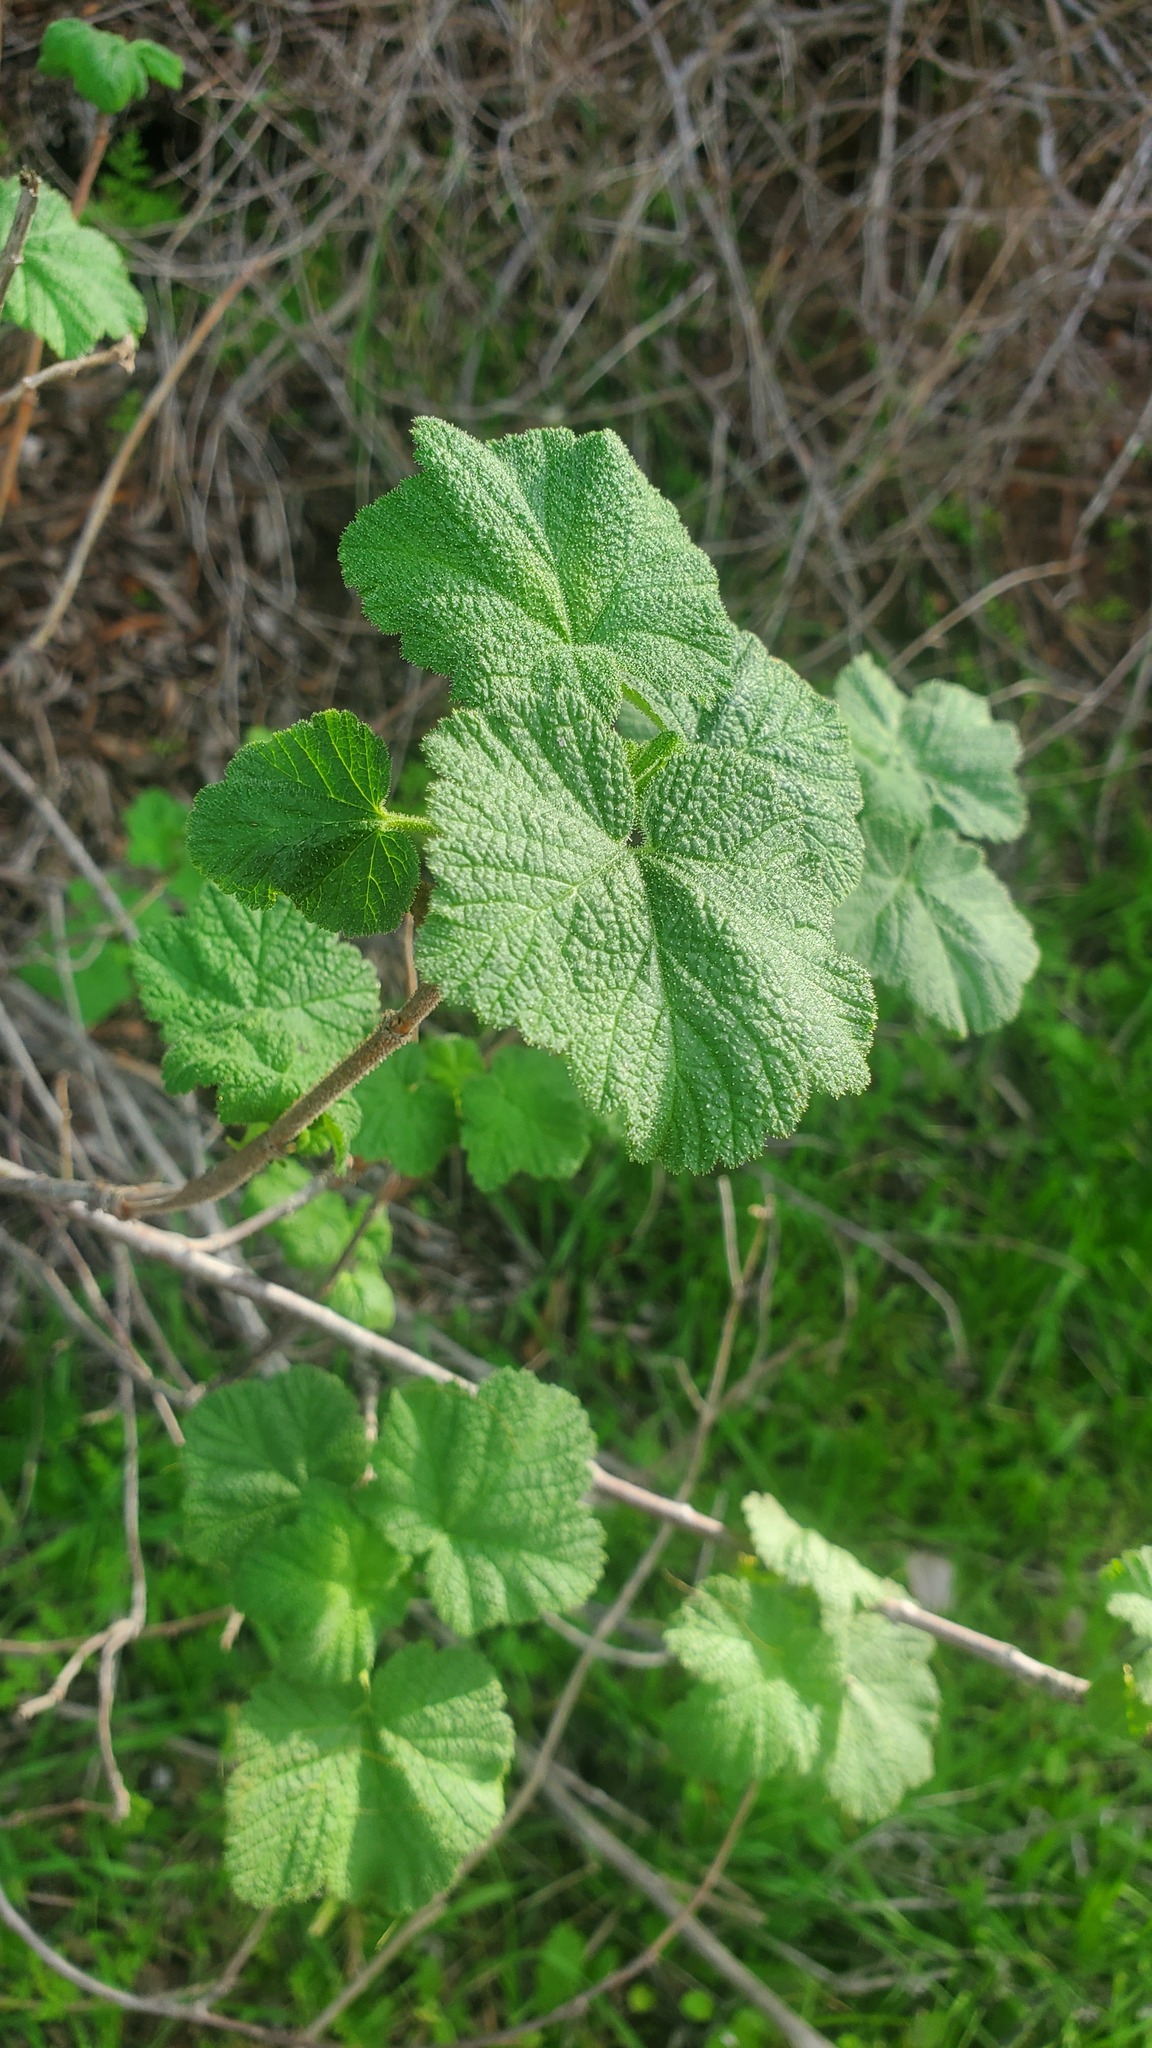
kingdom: Plantae
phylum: Tracheophyta
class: Magnoliopsida
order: Saxifragales
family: Grossulariaceae
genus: Ribes
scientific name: Ribes malvaceum
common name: Chaparral currant
